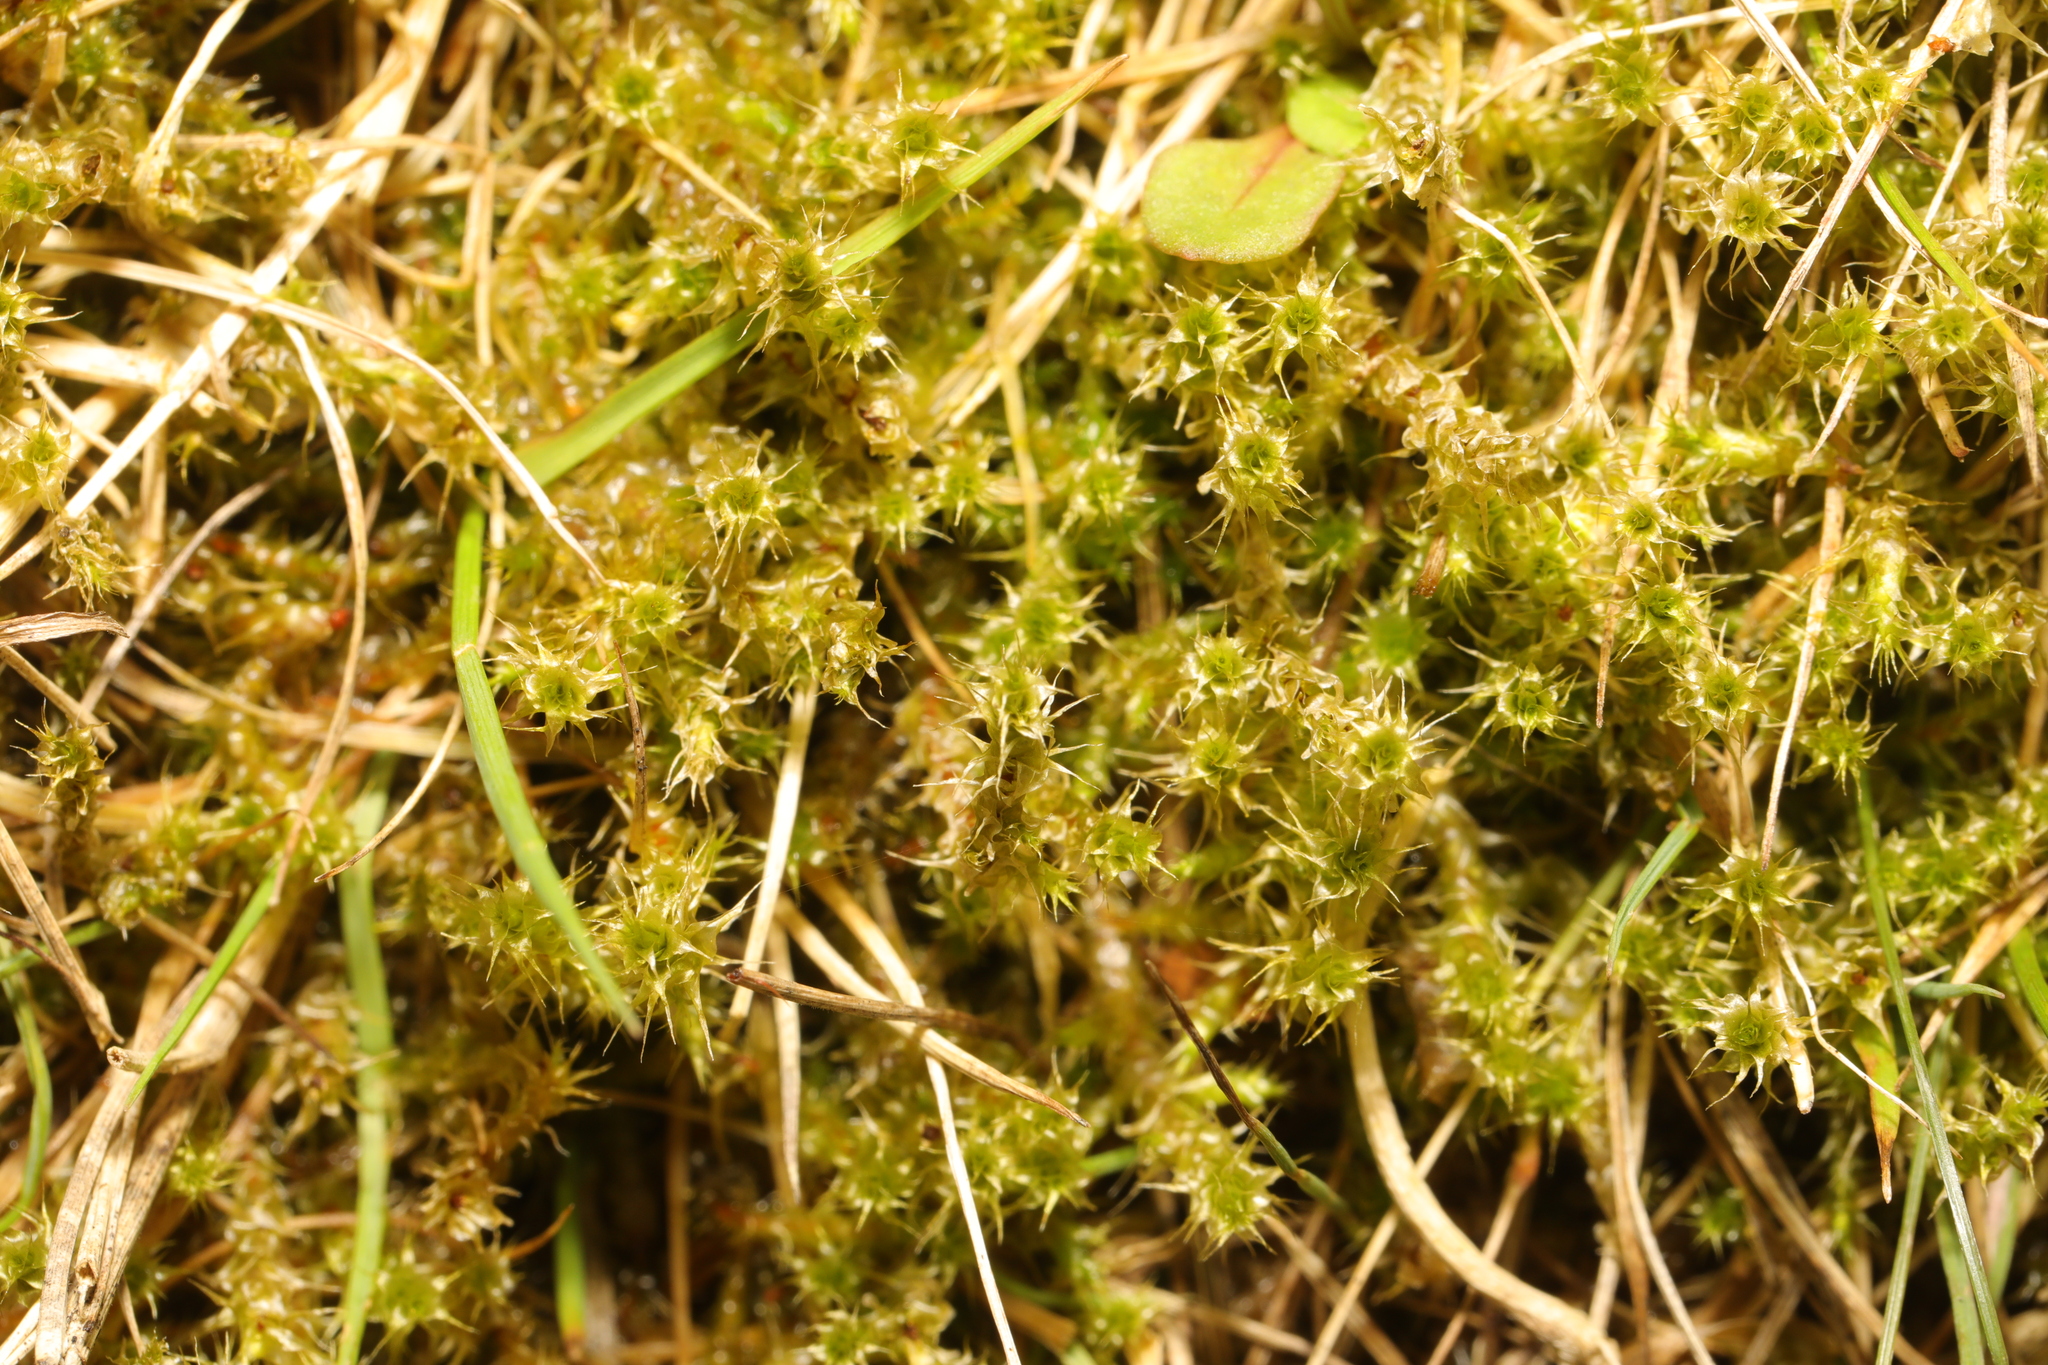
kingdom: Plantae
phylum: Bryophyta
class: Bryopsida
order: Hypnales
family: Hylocomiaceae
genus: Rhytidiadelphus
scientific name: Rhytidiadelphus squarrosus
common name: Springy turf-moss
